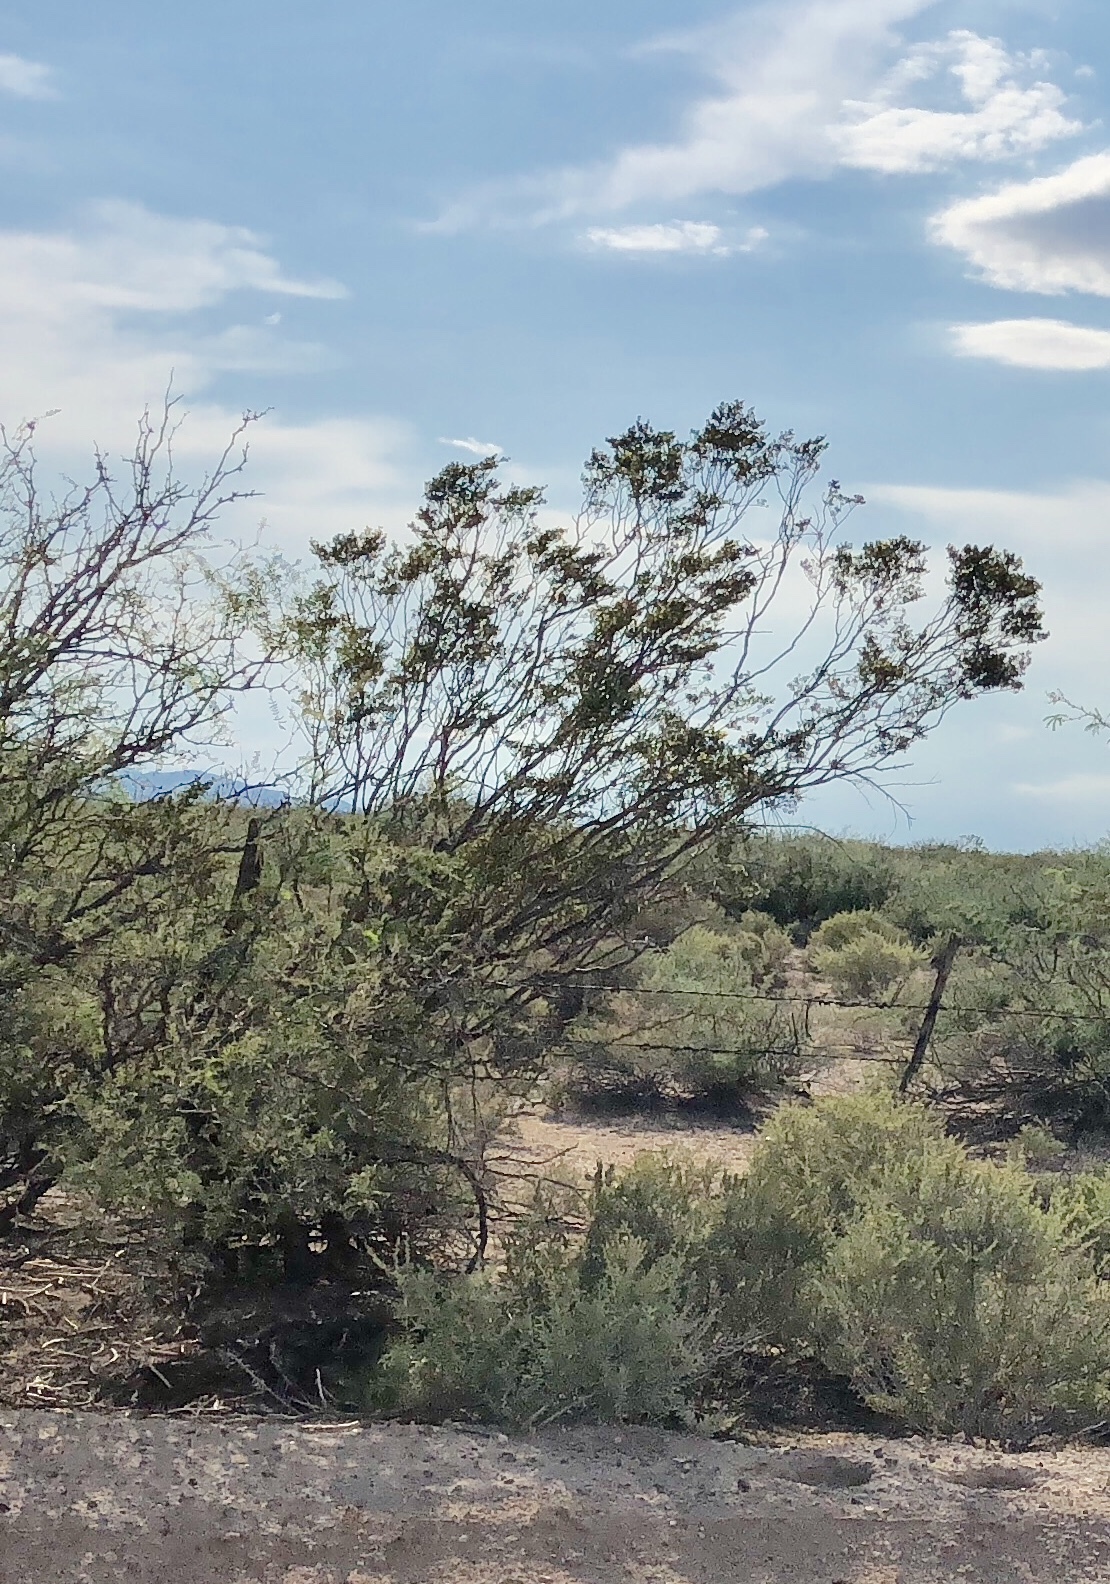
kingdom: Plantae
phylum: Tracheophyta
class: Magnoliopsida
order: Zygophyllales
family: Zygophyllaceae
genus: Larrea
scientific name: Larrea tridentata
